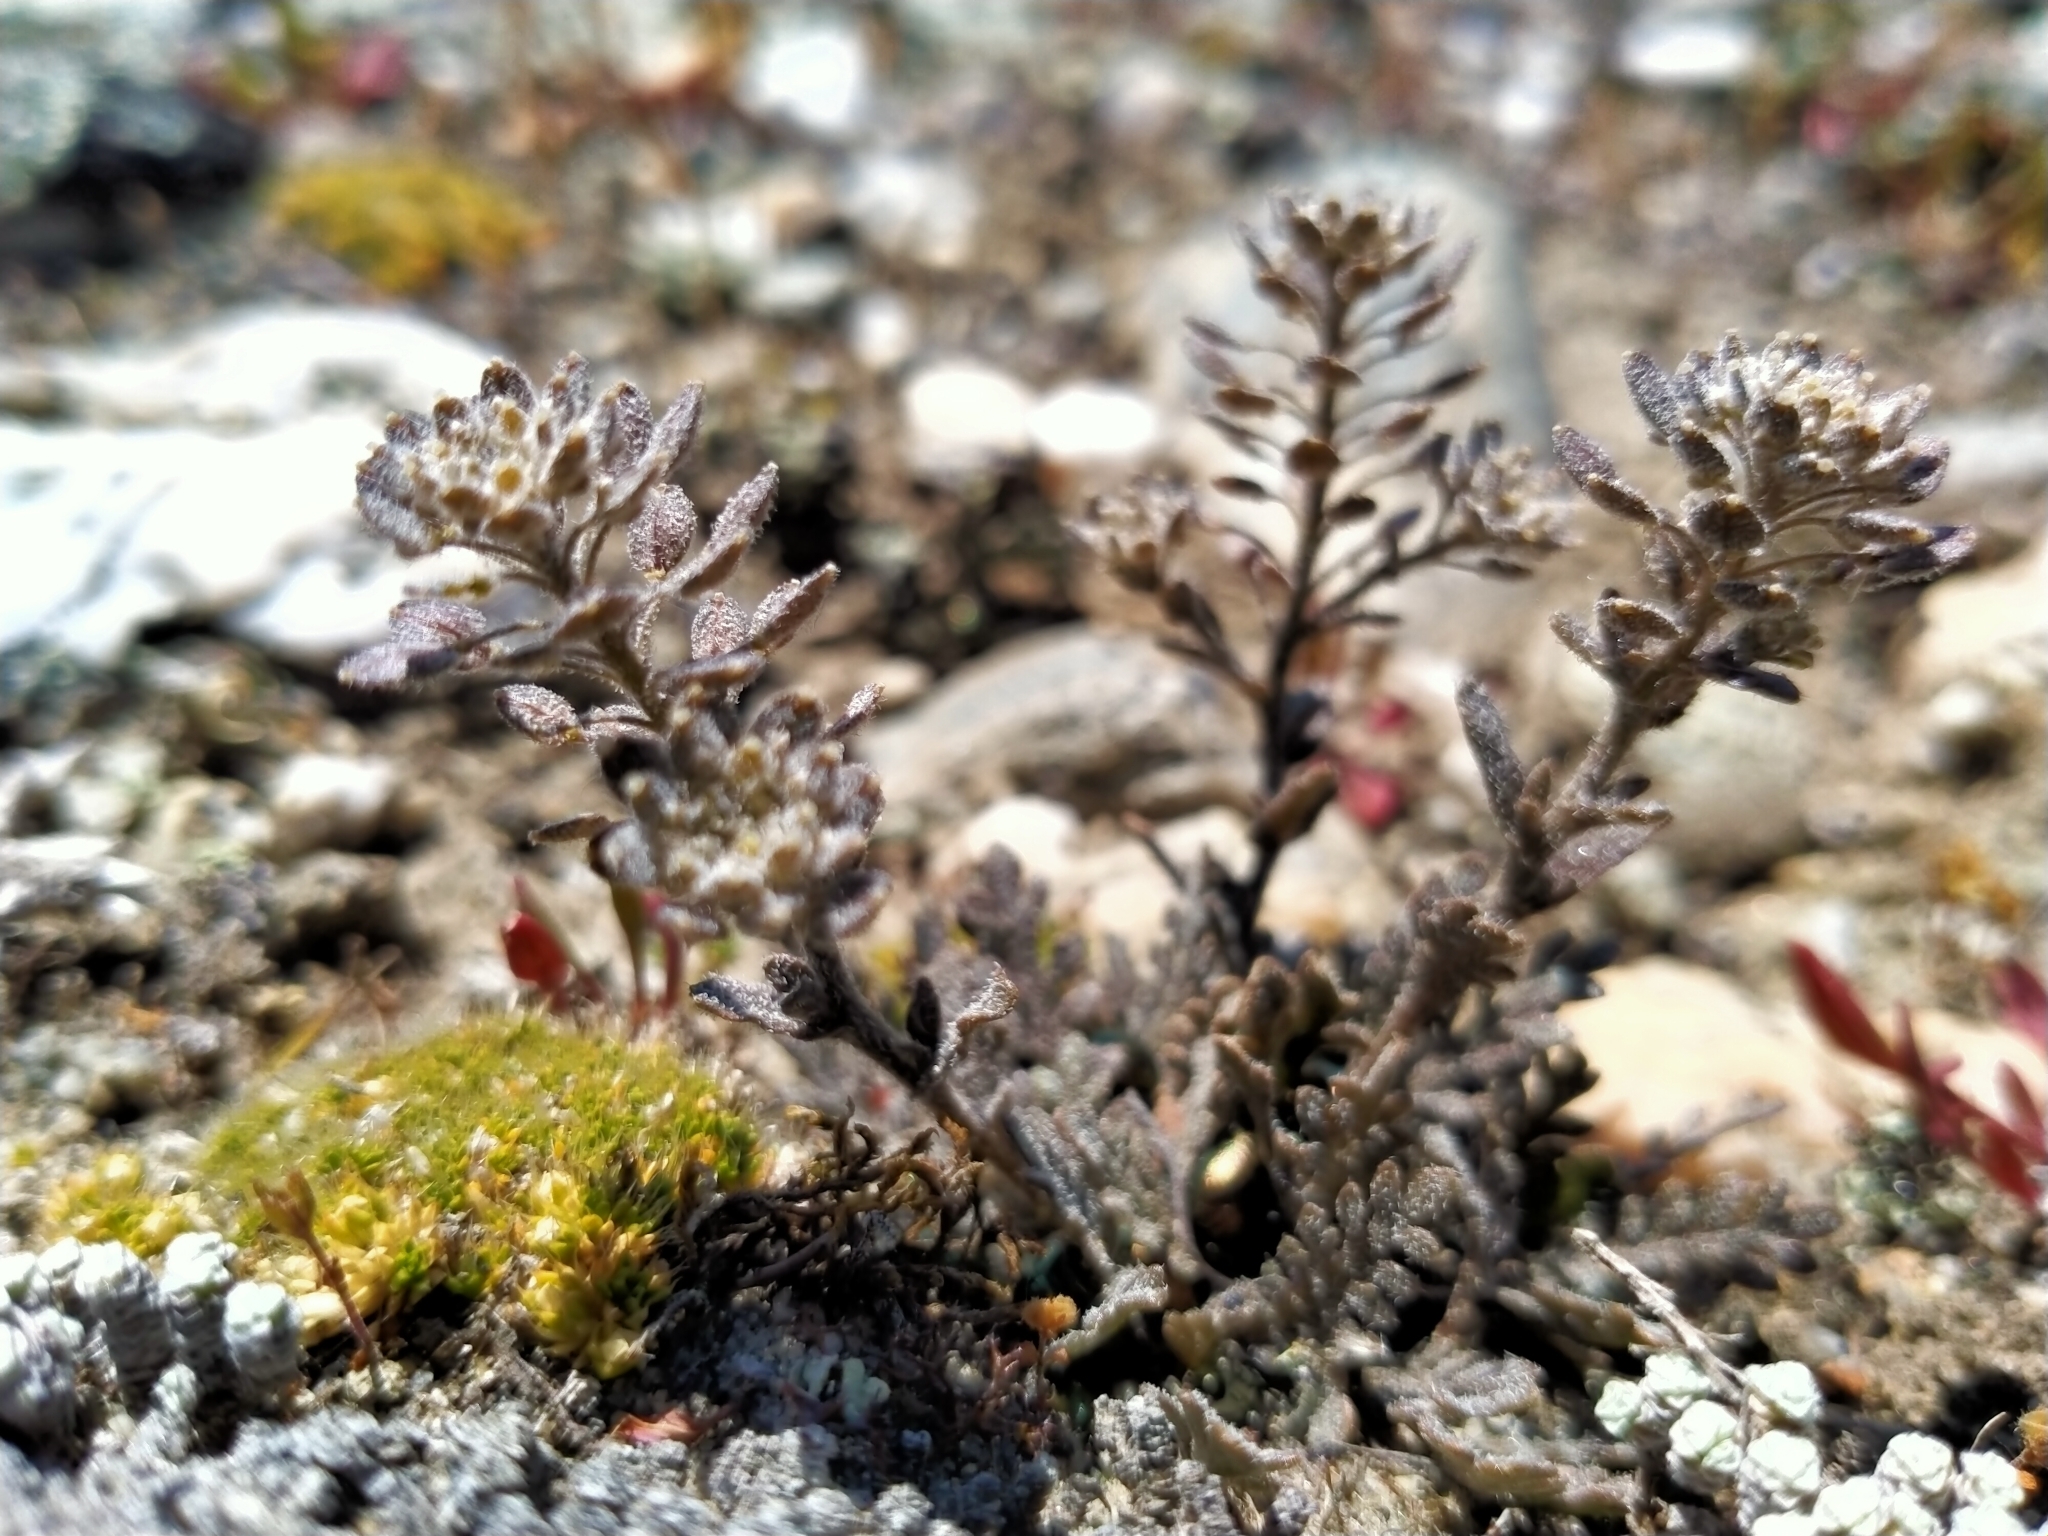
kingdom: Plantae
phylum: Tracheophyta
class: Magnoliopsida
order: Brassicales
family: Brassicaceae
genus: Lepidium
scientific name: Lepidium sisymbrioides
